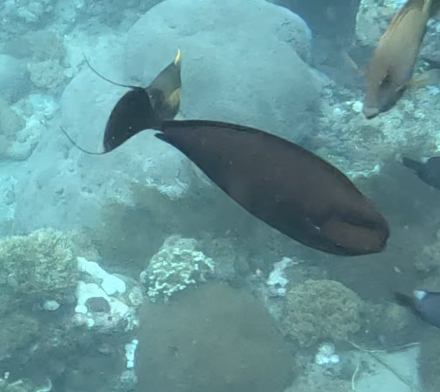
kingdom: Animalia
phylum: Chordata
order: Perciformes
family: Acanthuridae
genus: Naso
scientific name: Naso vlamingii
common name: Big-nose unicorn
